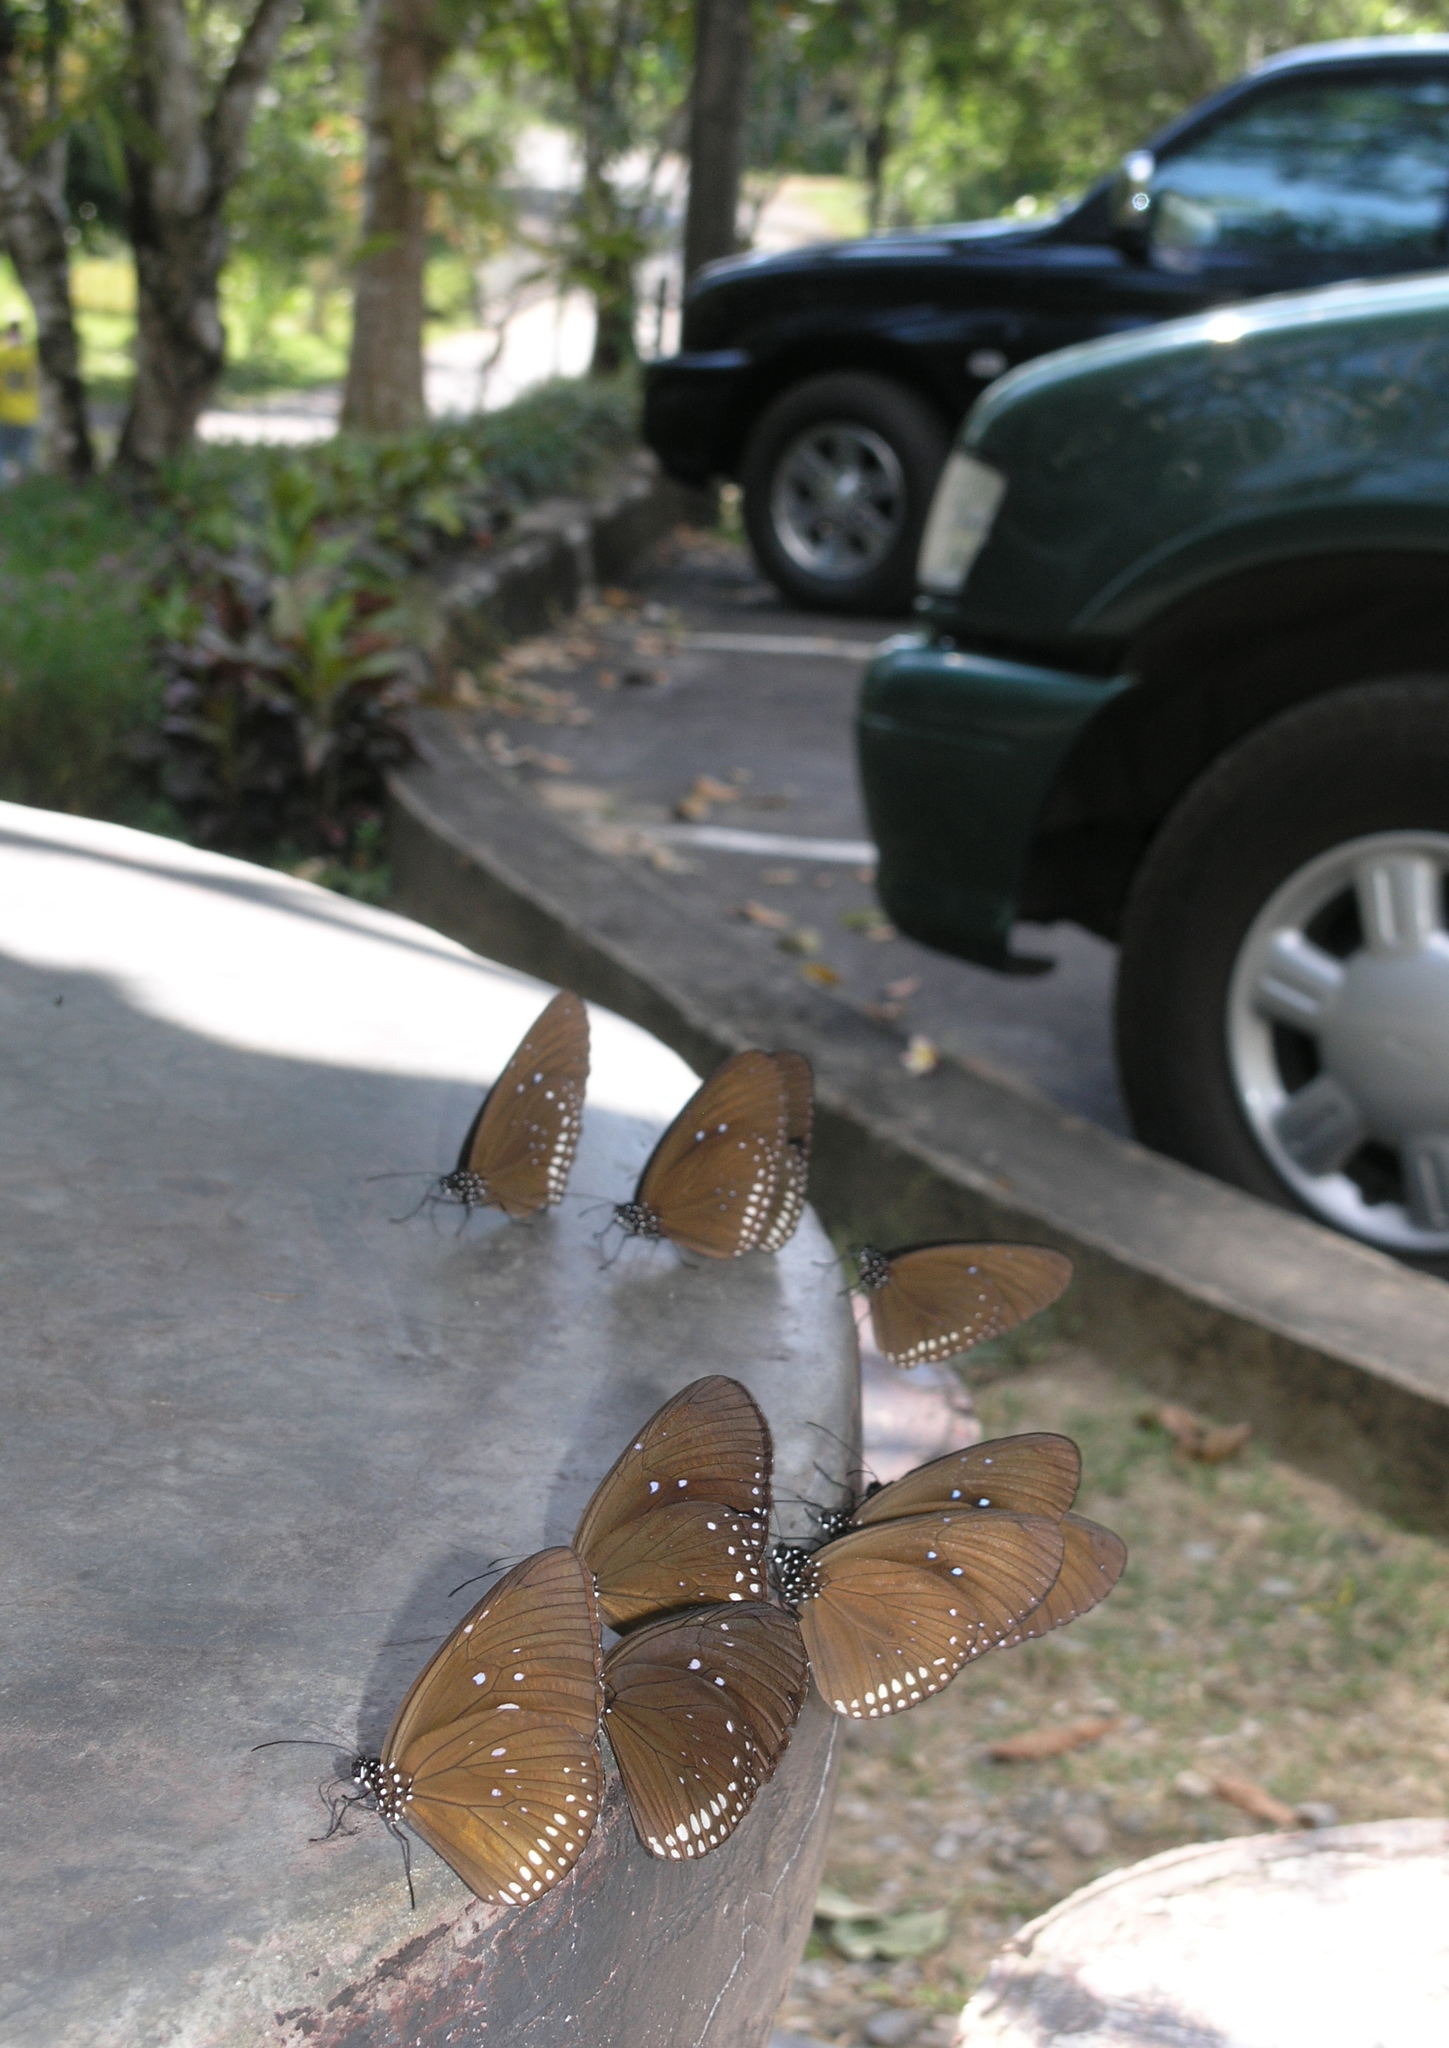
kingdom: Animalia
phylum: Arthropoda
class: Insecta
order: Lepidoptera
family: Nymphalidae
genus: Euploea
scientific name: Euploea modesta
